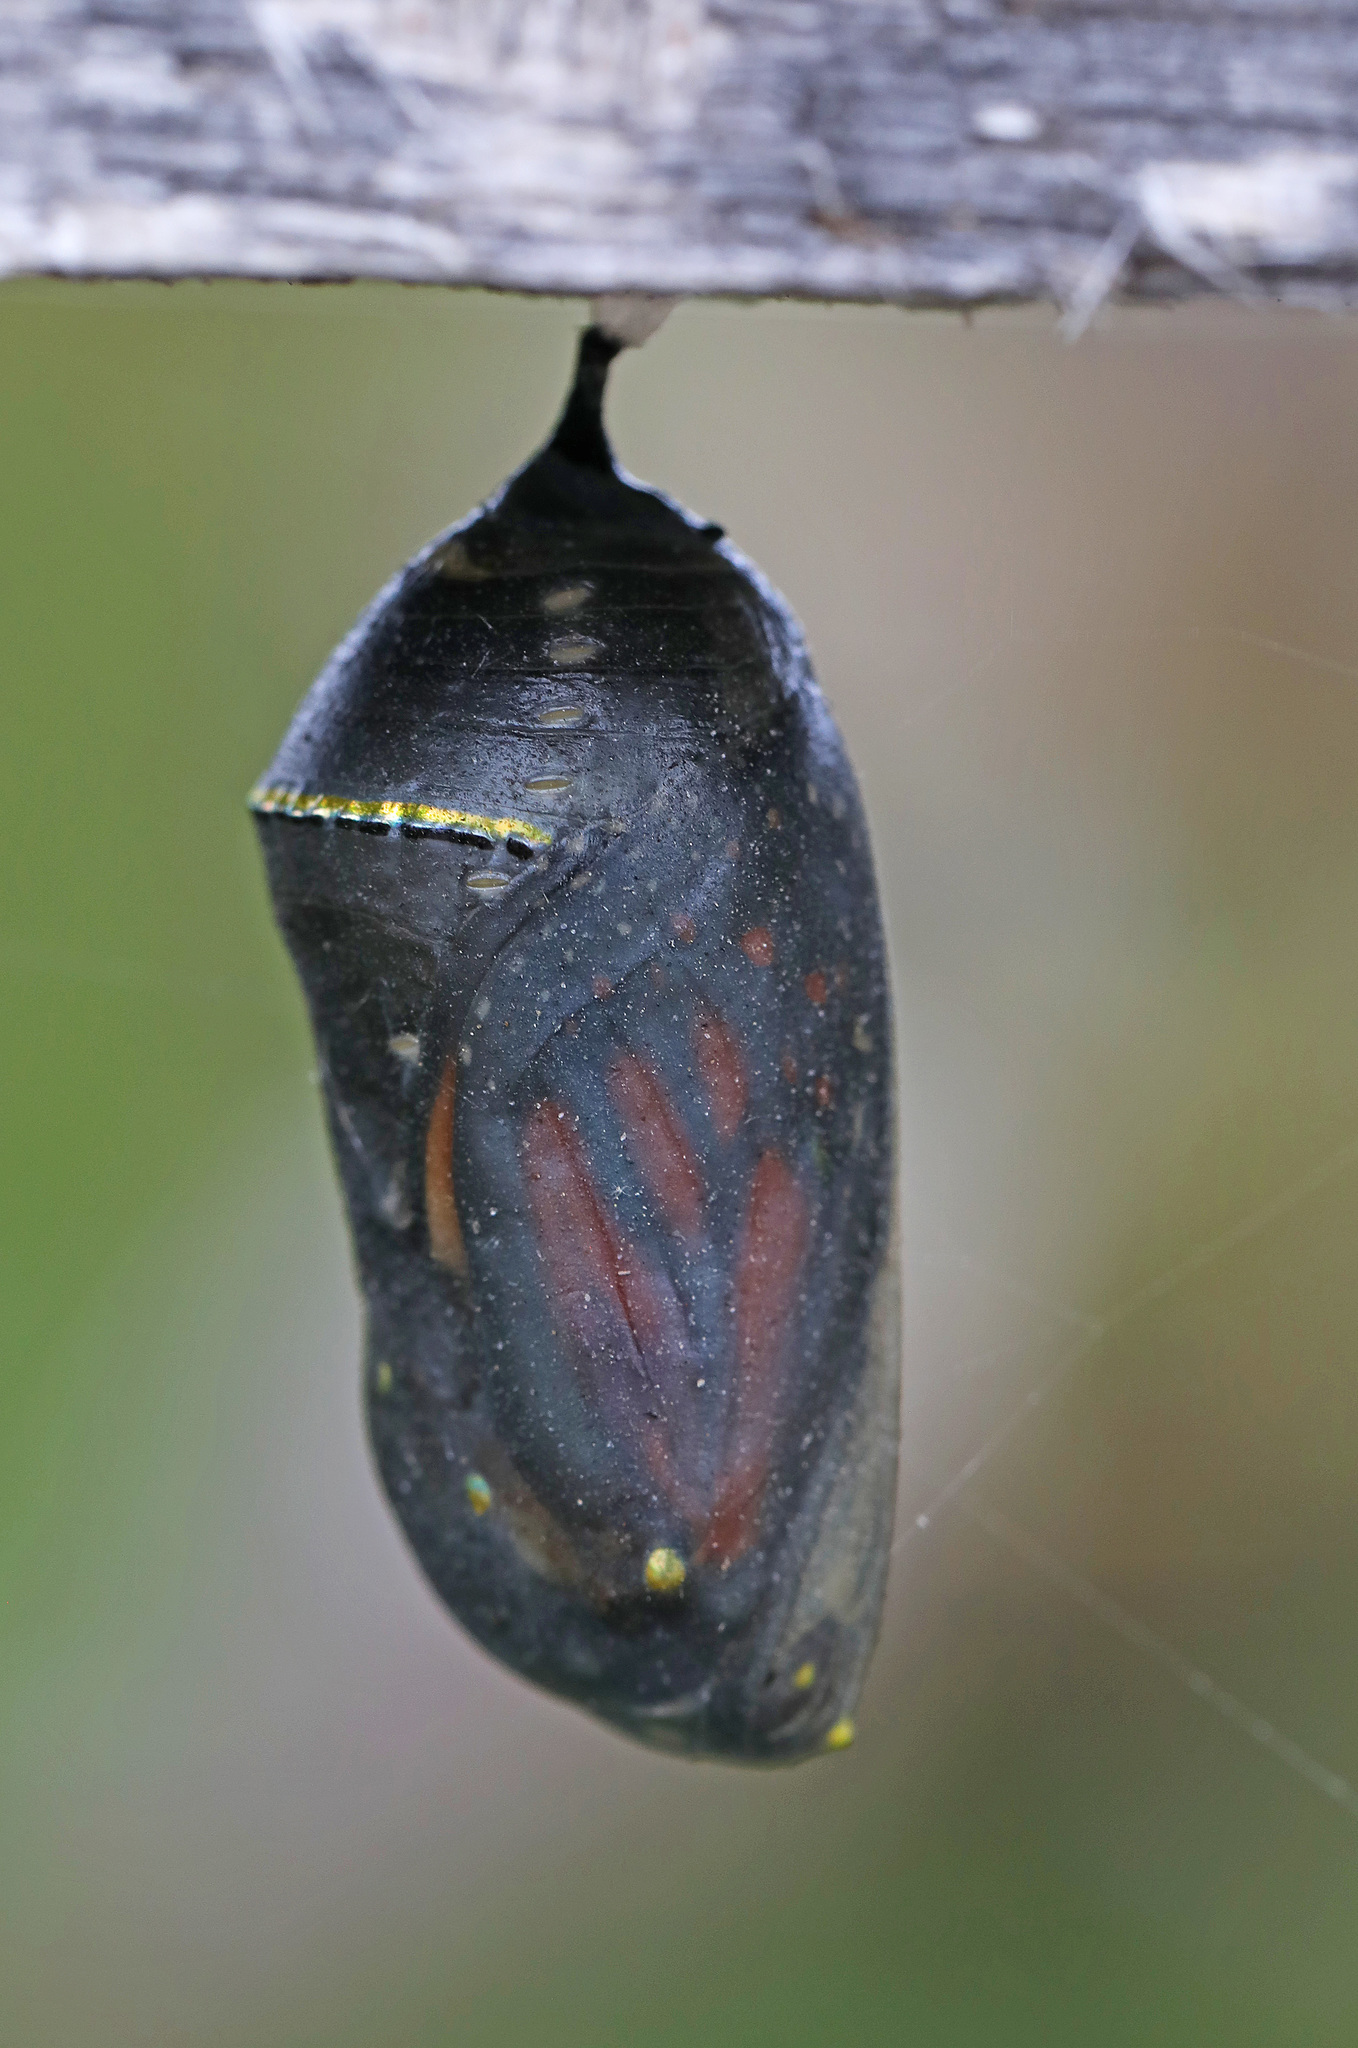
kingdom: Animalia
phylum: Arthropoda
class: Insecta
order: Lepidoptera
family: Nymphalidae
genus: Danaus
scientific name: Danaus plexippus
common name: Monarch
